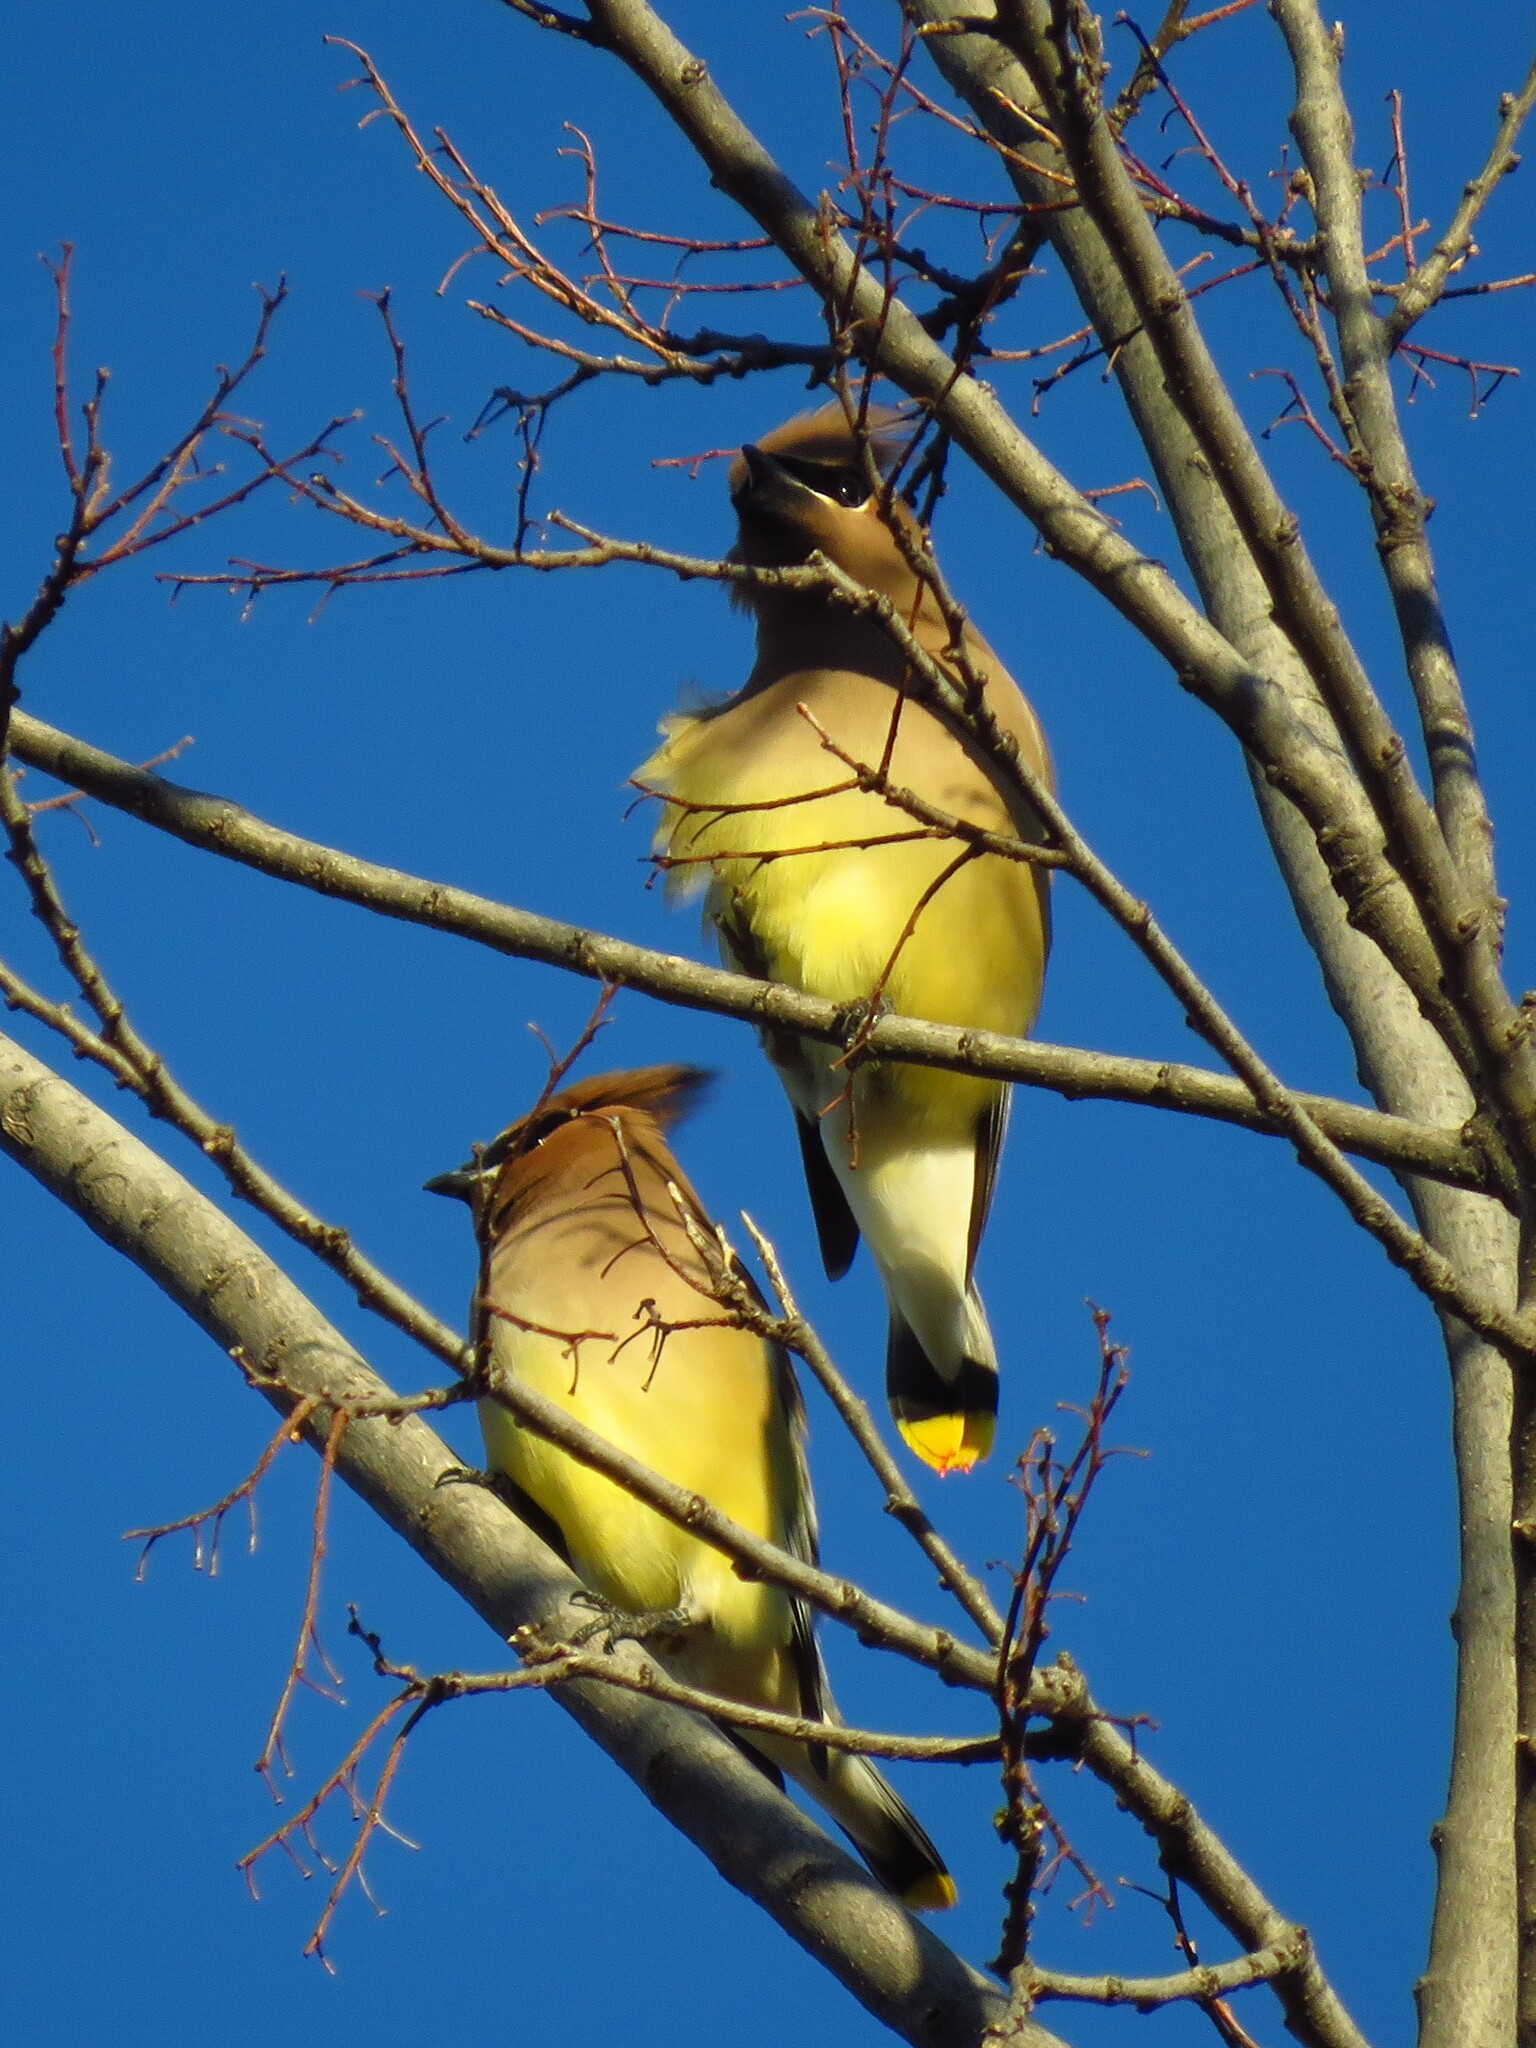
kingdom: Animalia
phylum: Chordata
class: Aves
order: Passeriformes
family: Bombycillidae
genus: Bombycilla
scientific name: Bombycilla cedrorum
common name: Cedar waxwing
